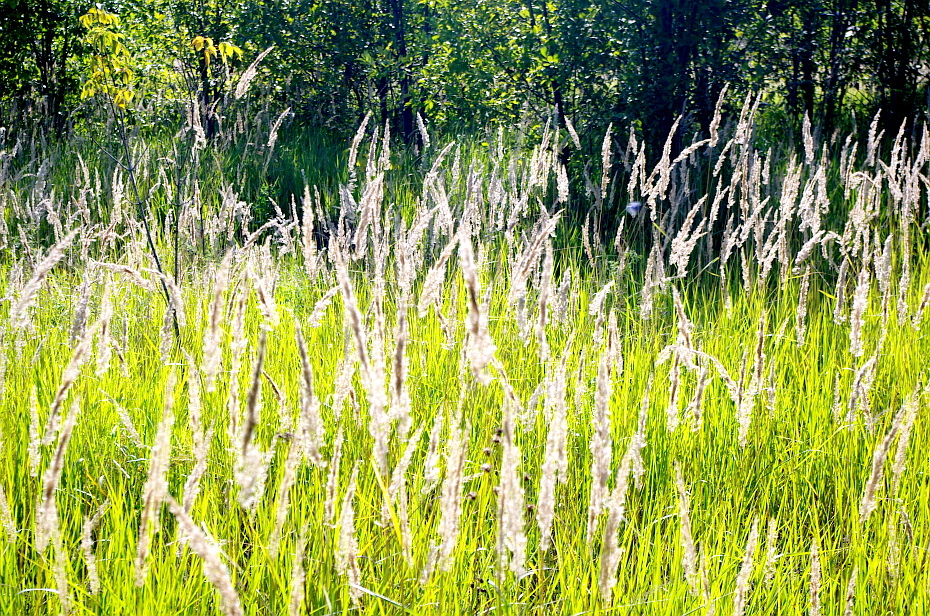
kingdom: Plantae
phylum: Tracheophyta
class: Liliopsida
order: Poales
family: Poaceae
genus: Calamagrostis
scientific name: Calamagrostis epigejos
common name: Wood small-reed
